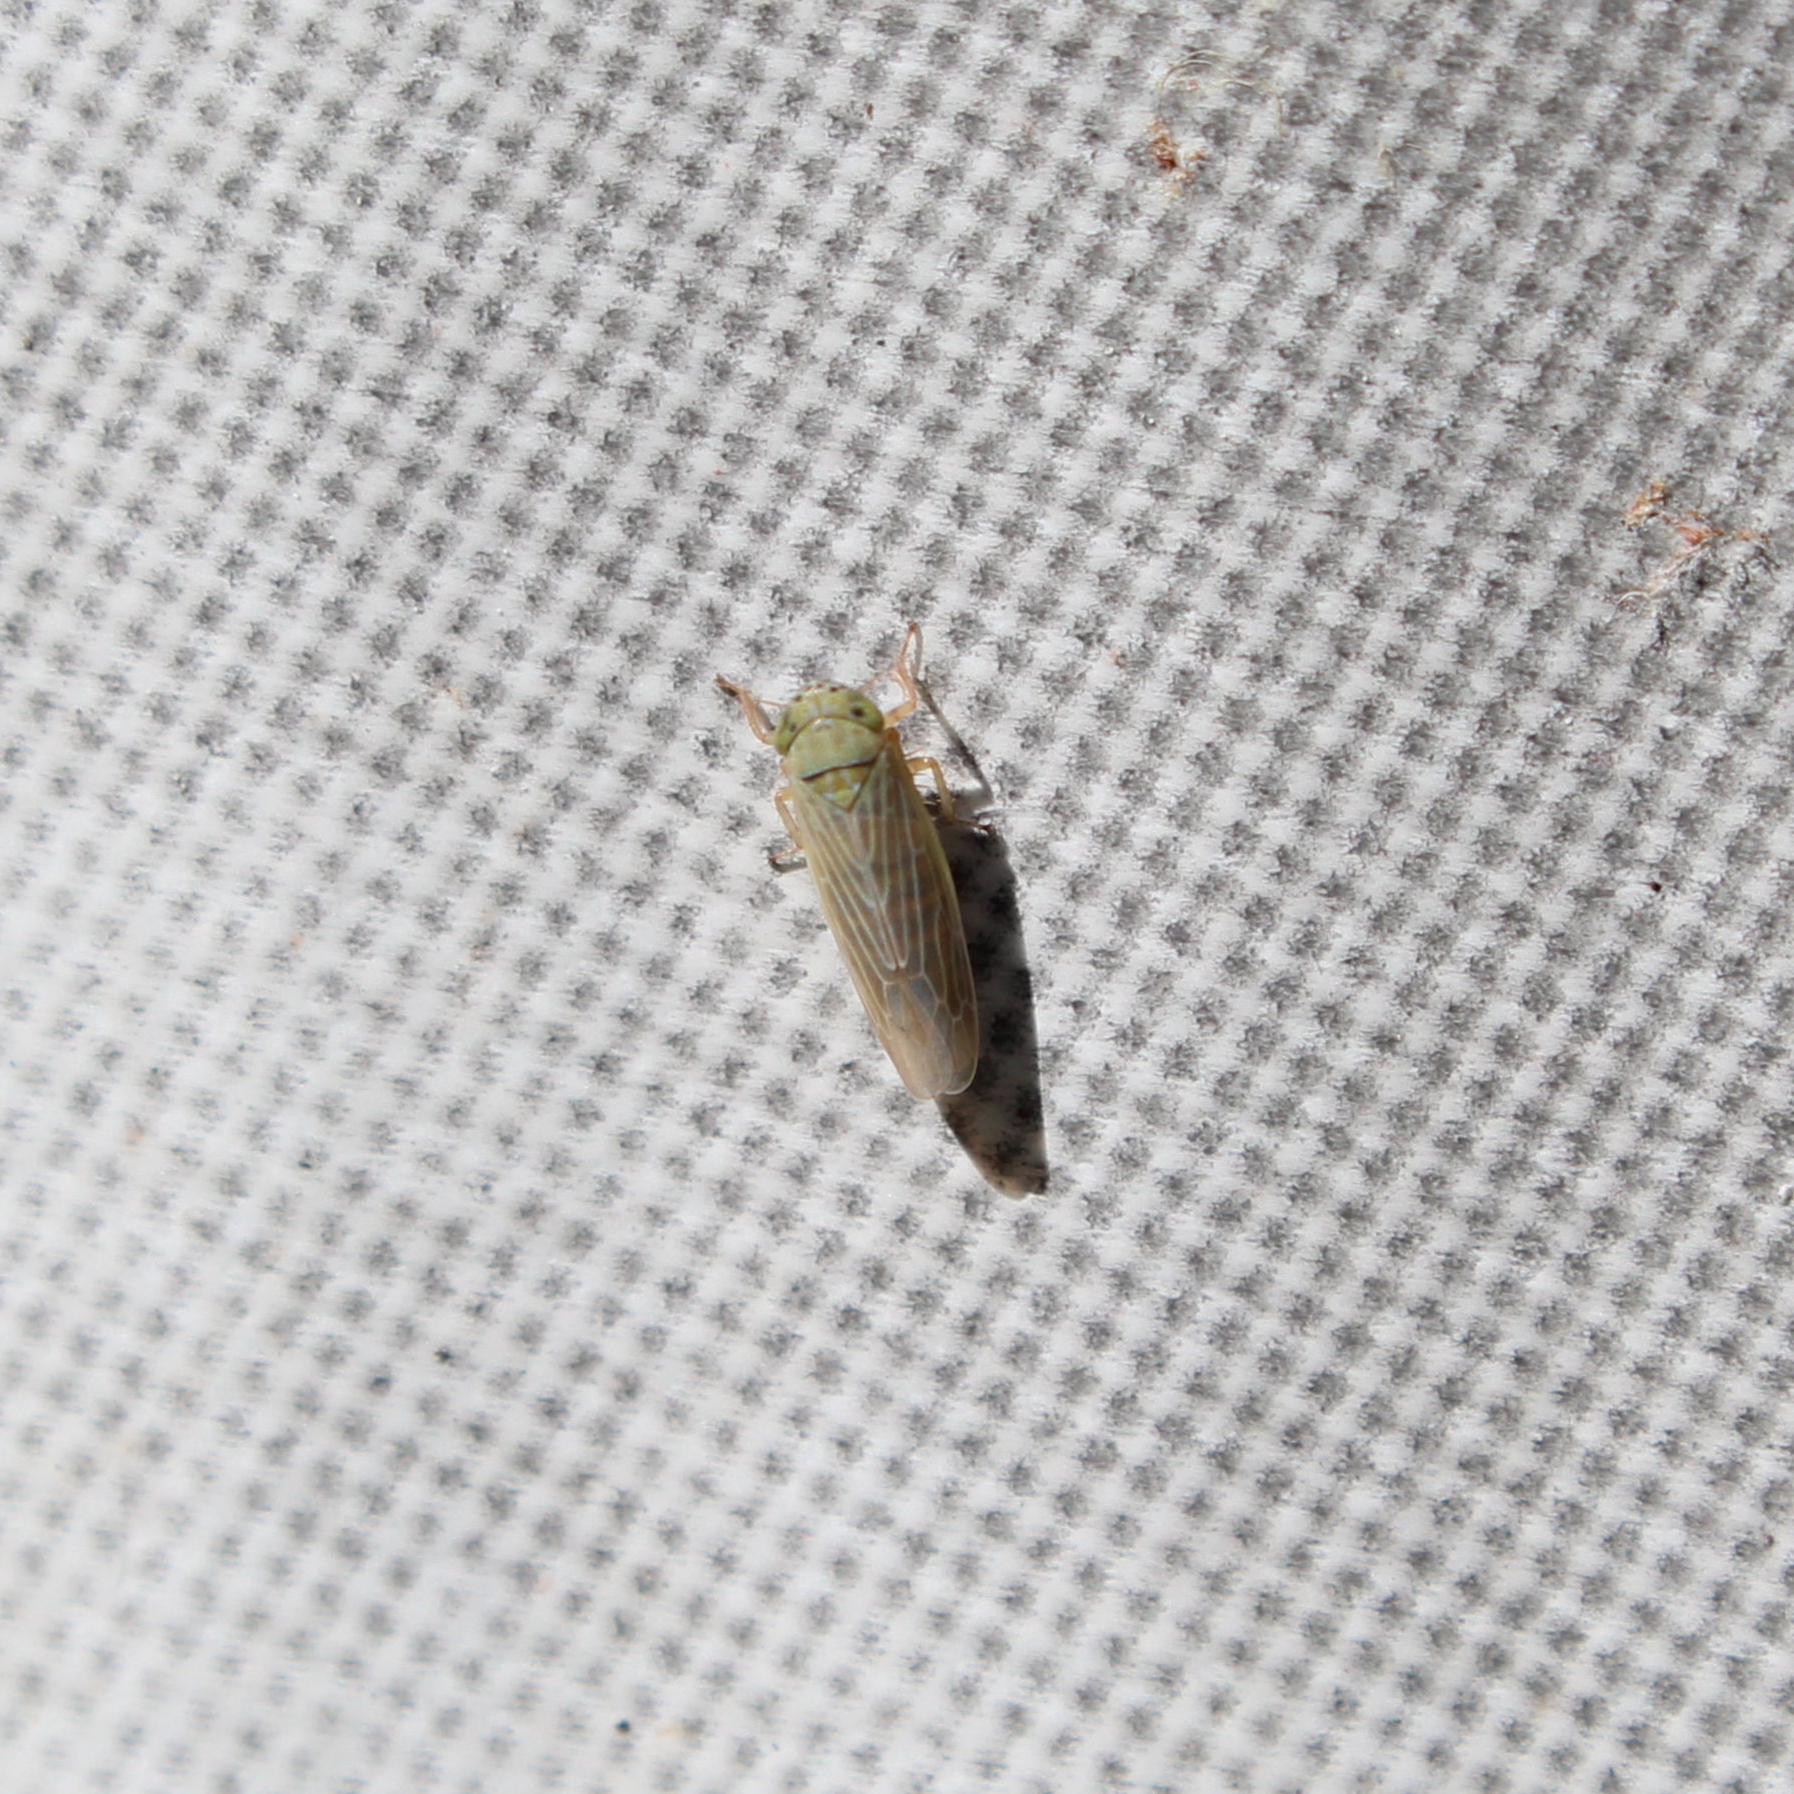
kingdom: Animalia
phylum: Arthropoda
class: Insecta
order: Hemiptera
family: Cicadellidae
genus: Graminella
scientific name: Graminella nigrifrons
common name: Blackfaced leafhopper
